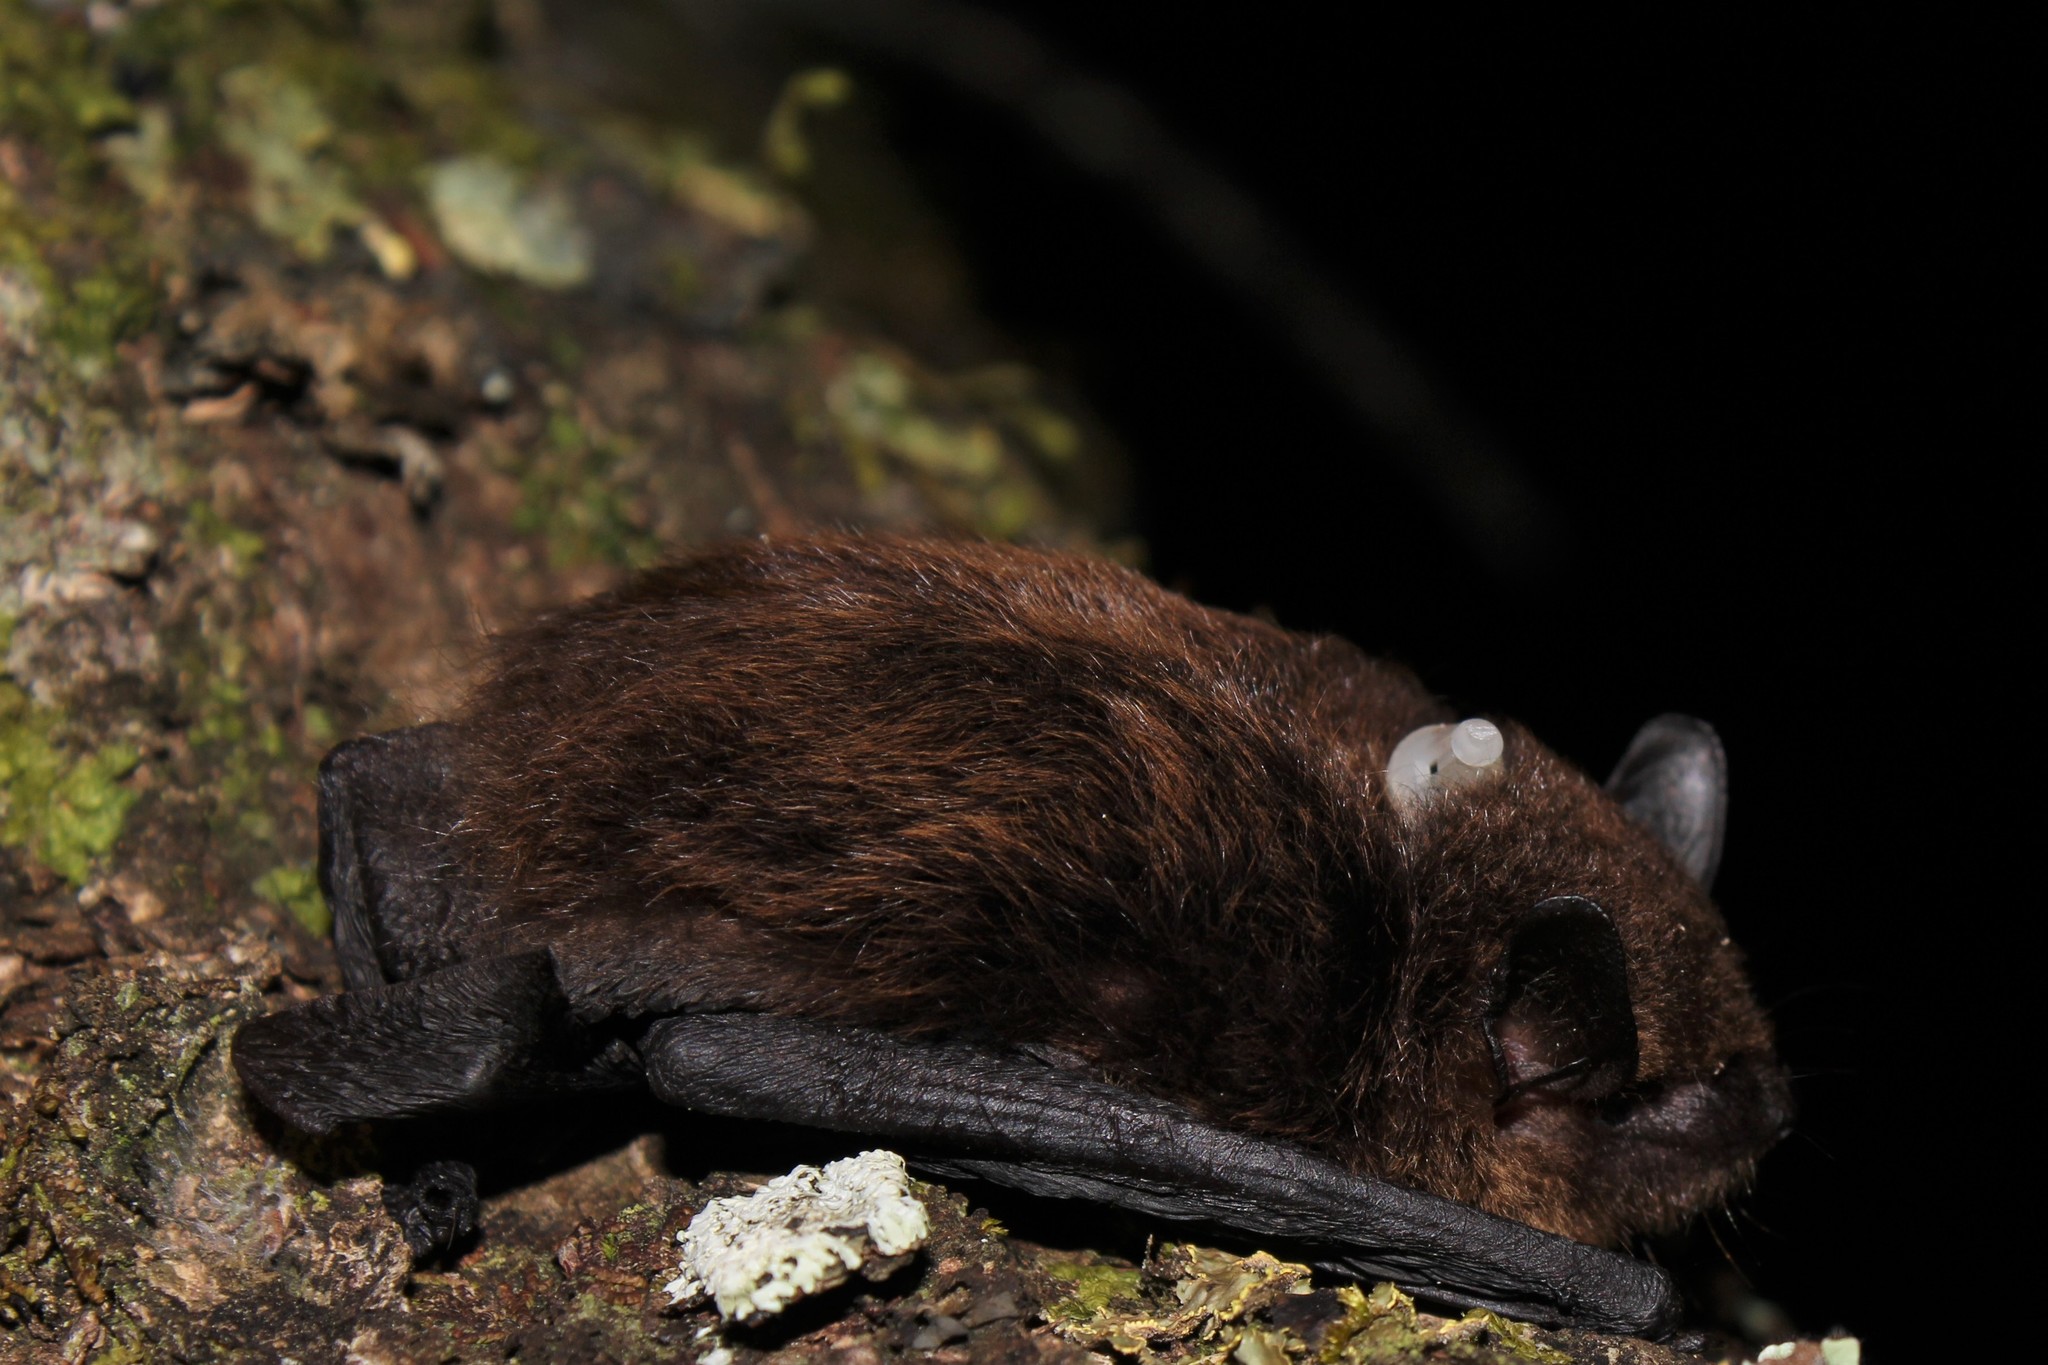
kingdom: Animalia
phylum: Chordata
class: Mammalia
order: Chiroptera
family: Vespertilionidae
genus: Eptesicus
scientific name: Eptesicus furinalis
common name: Argentinian brown bat
